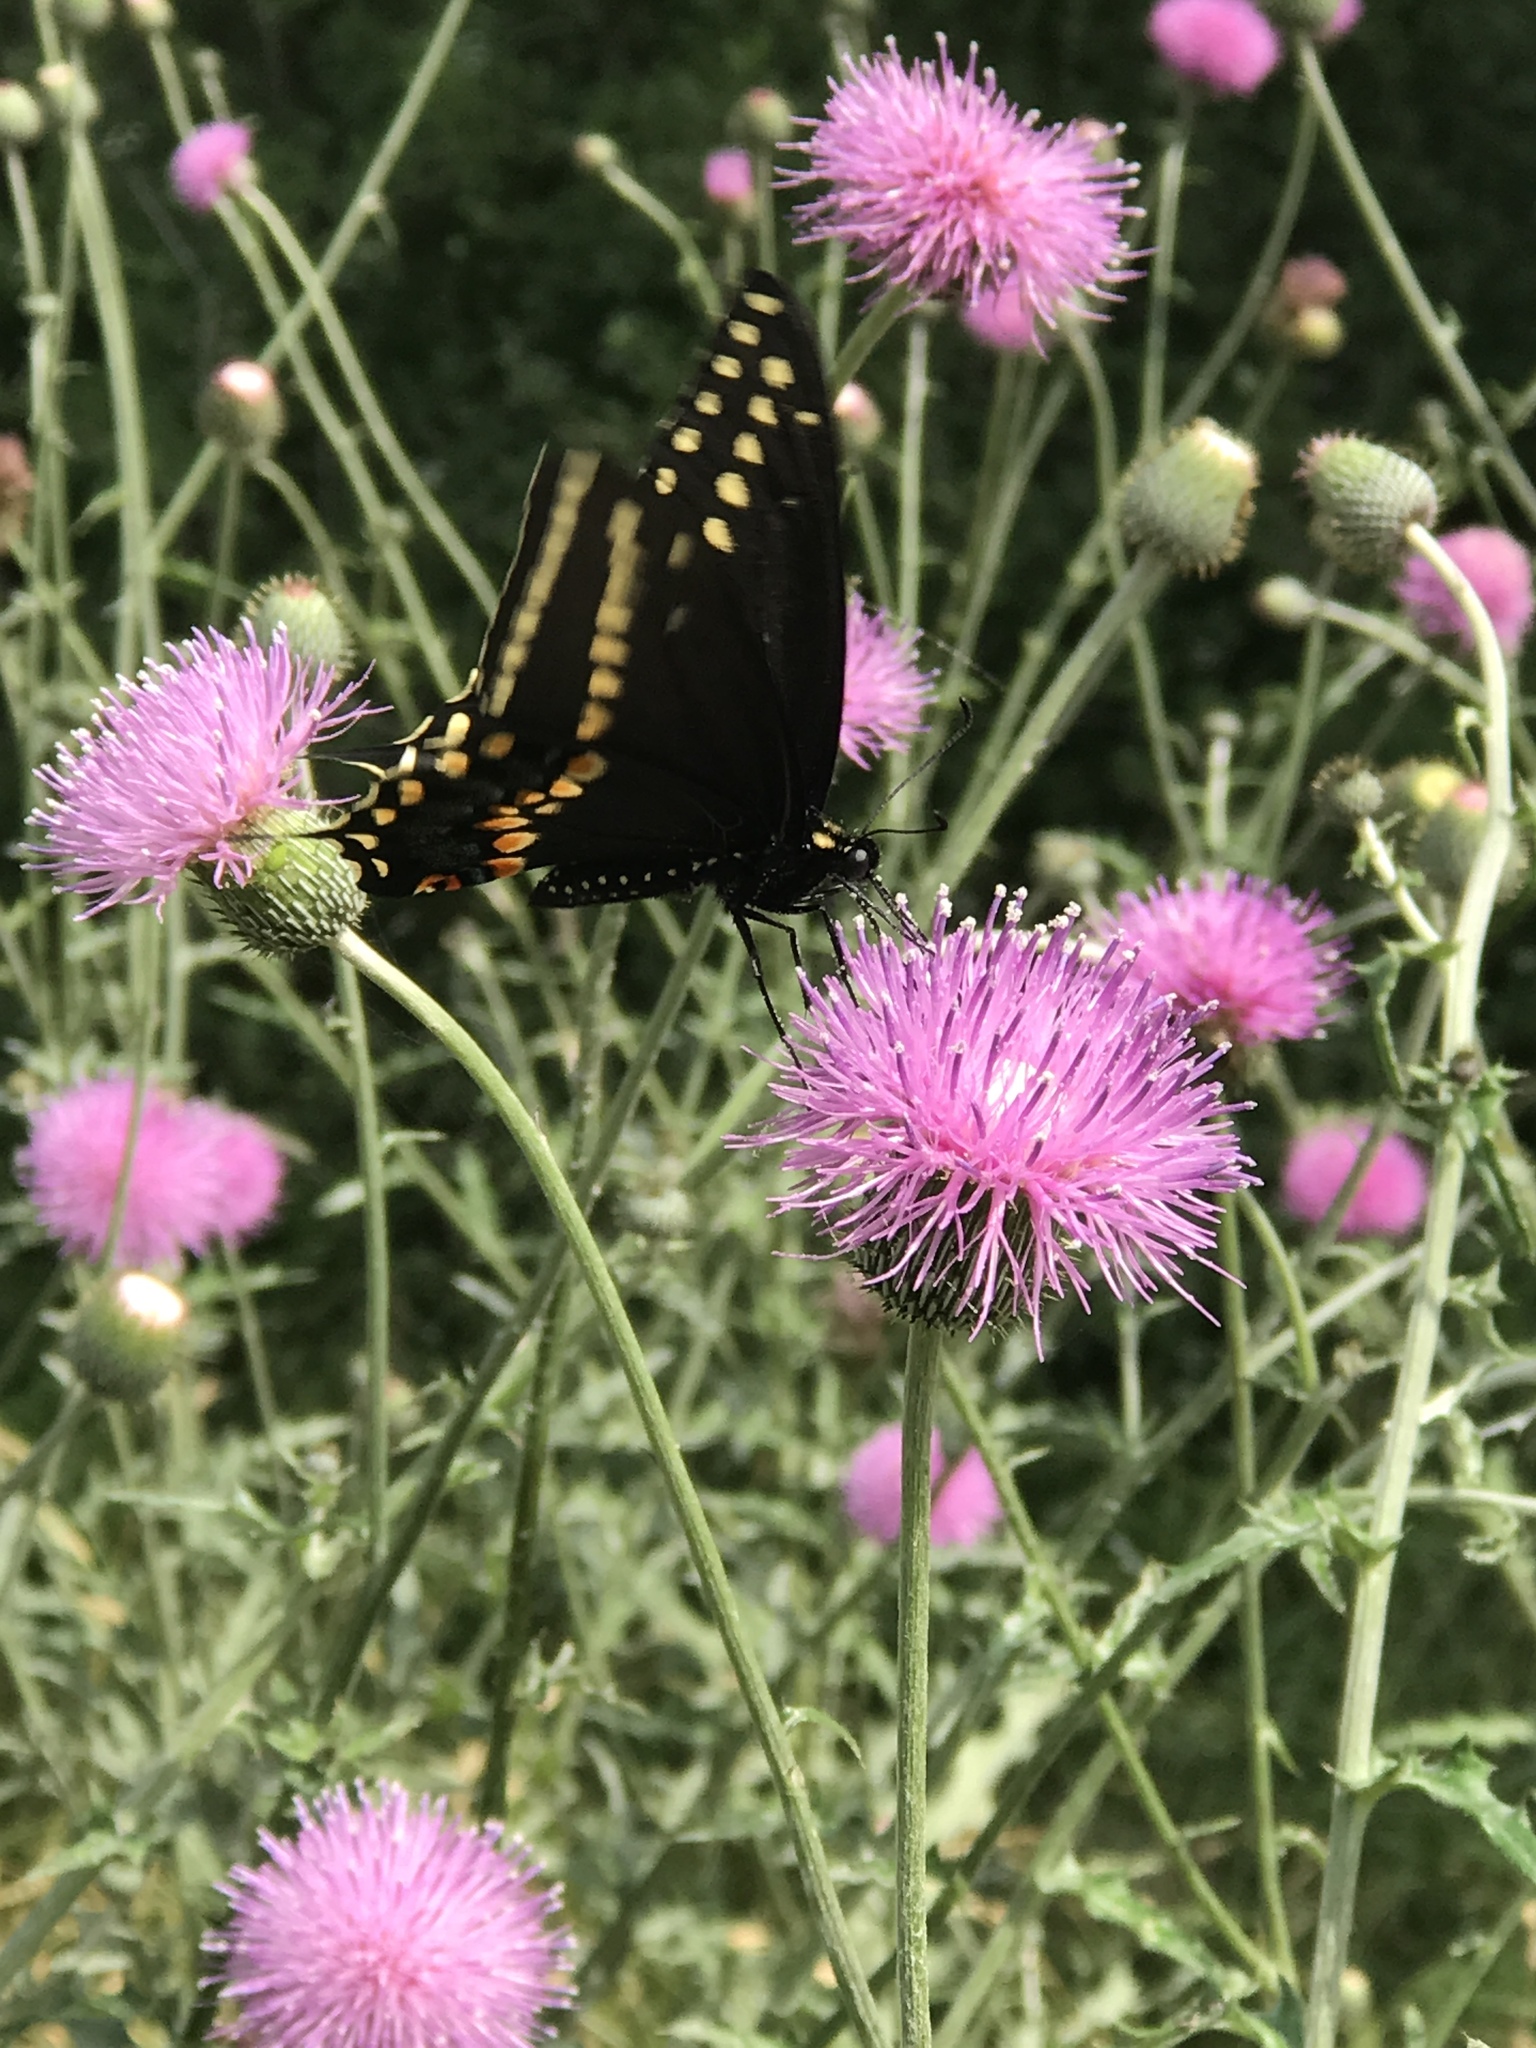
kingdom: Animalia
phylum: Arthropoda
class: Insecta
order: Lepidoptera
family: Papilionidae
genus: Papilio
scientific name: Papilio polyxenes
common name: Black swallowtail
